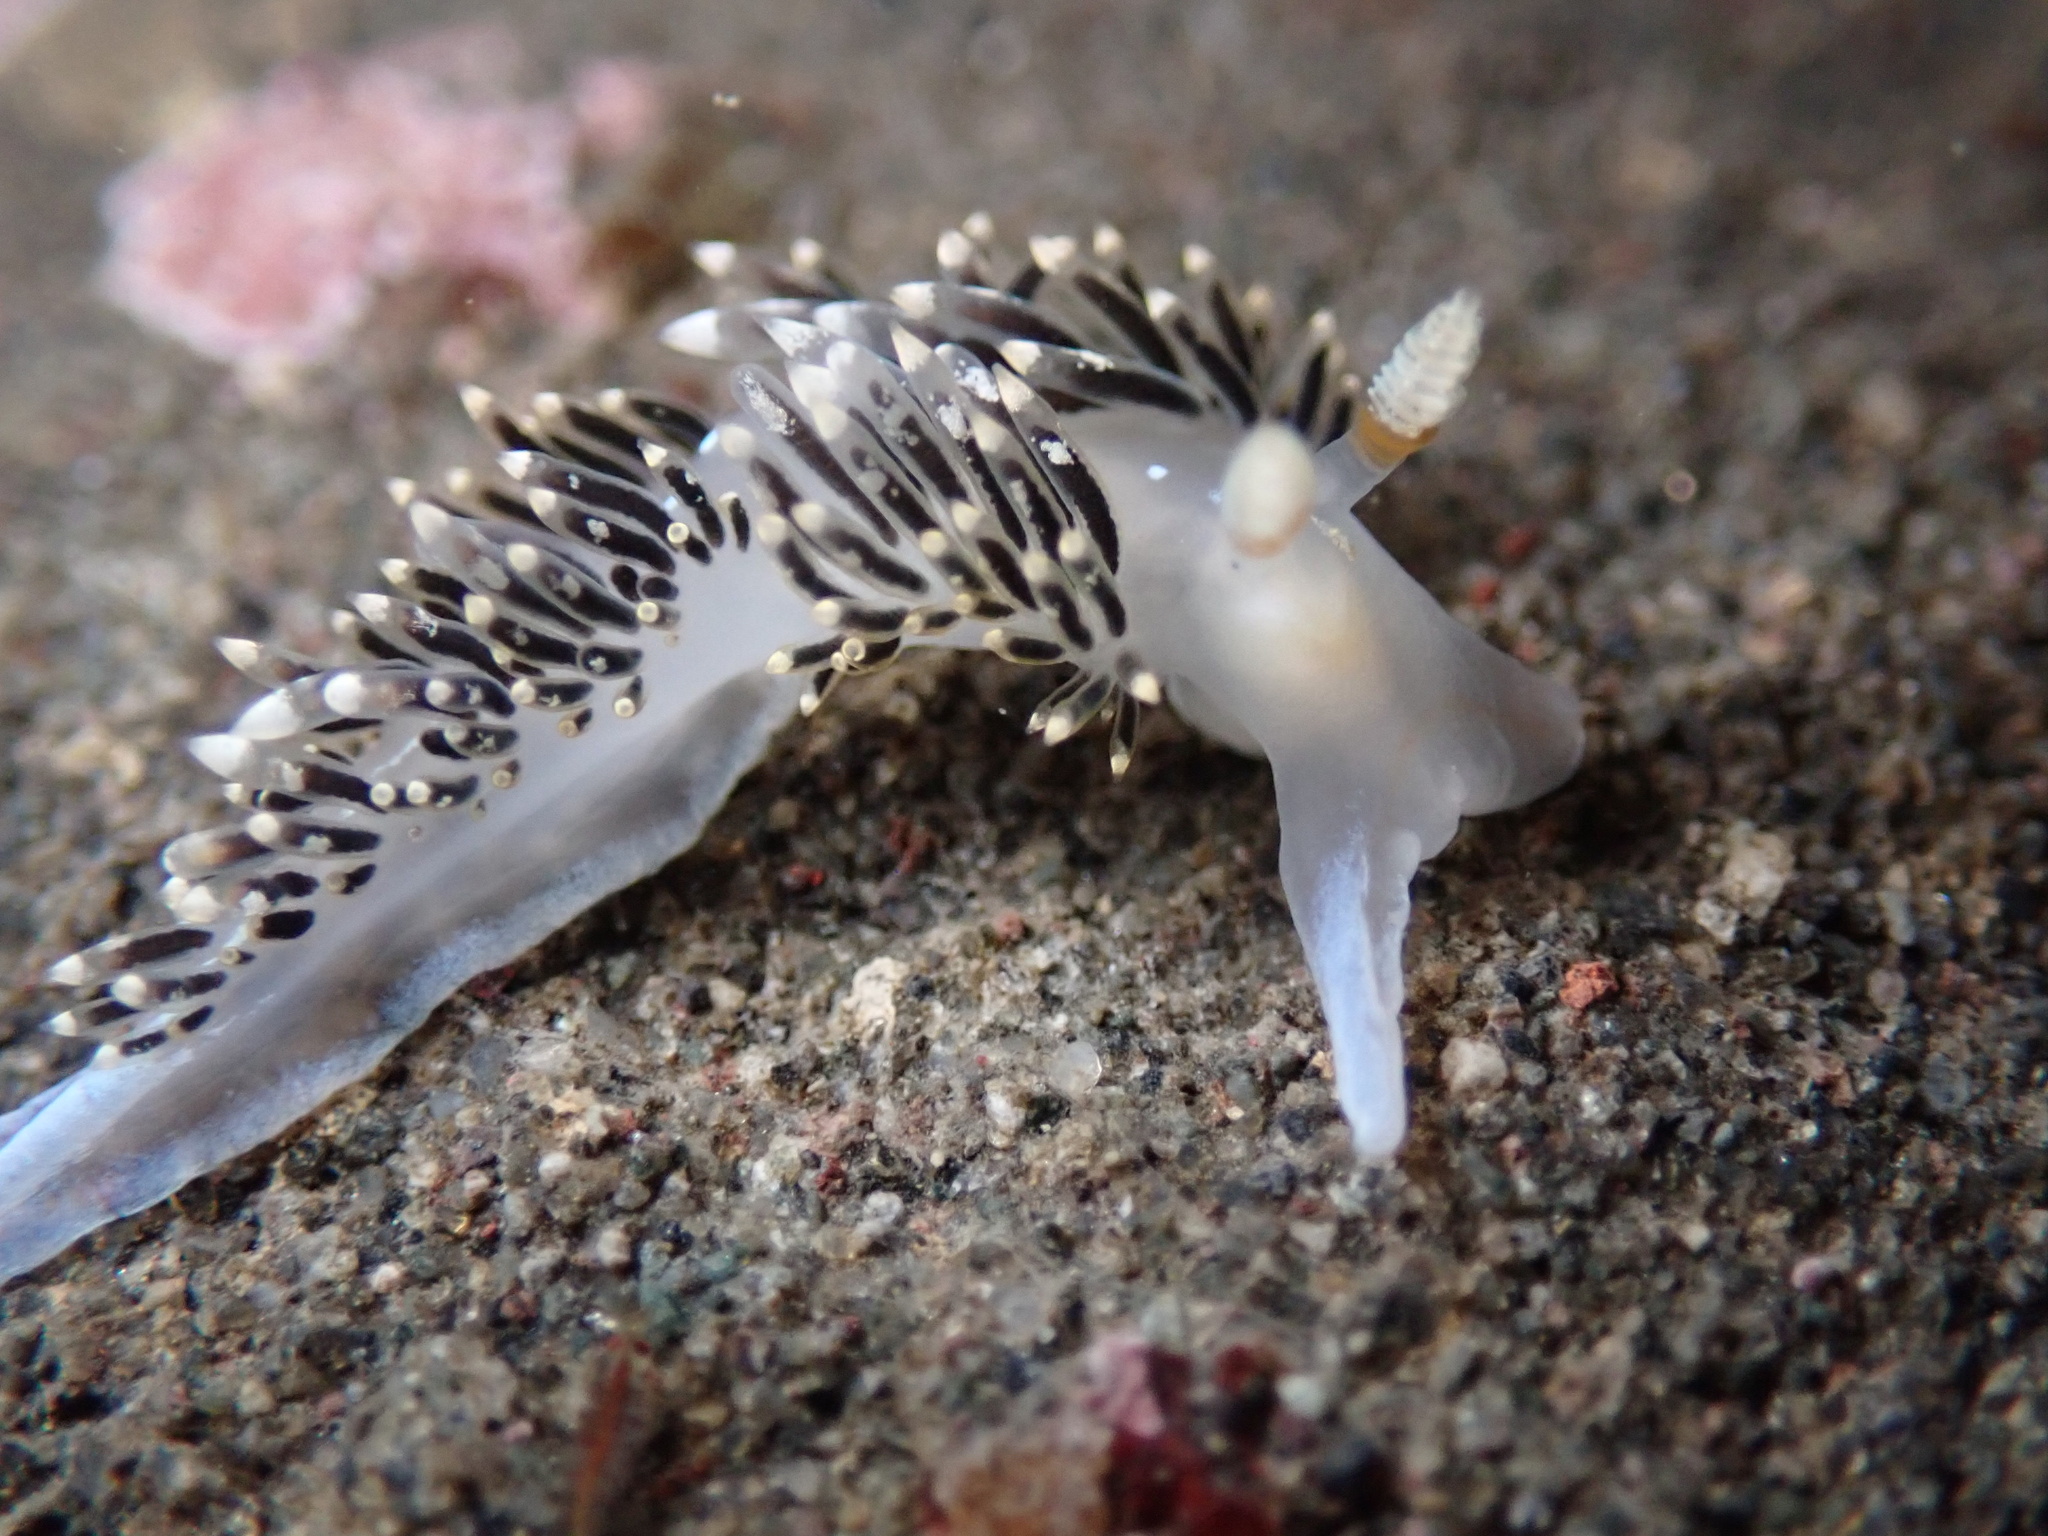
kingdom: Animalia
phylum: Mollusca
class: Gastropoda
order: Nudibranchia
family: Facelinidae
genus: Phidiana
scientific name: Phidiana hiltoni
